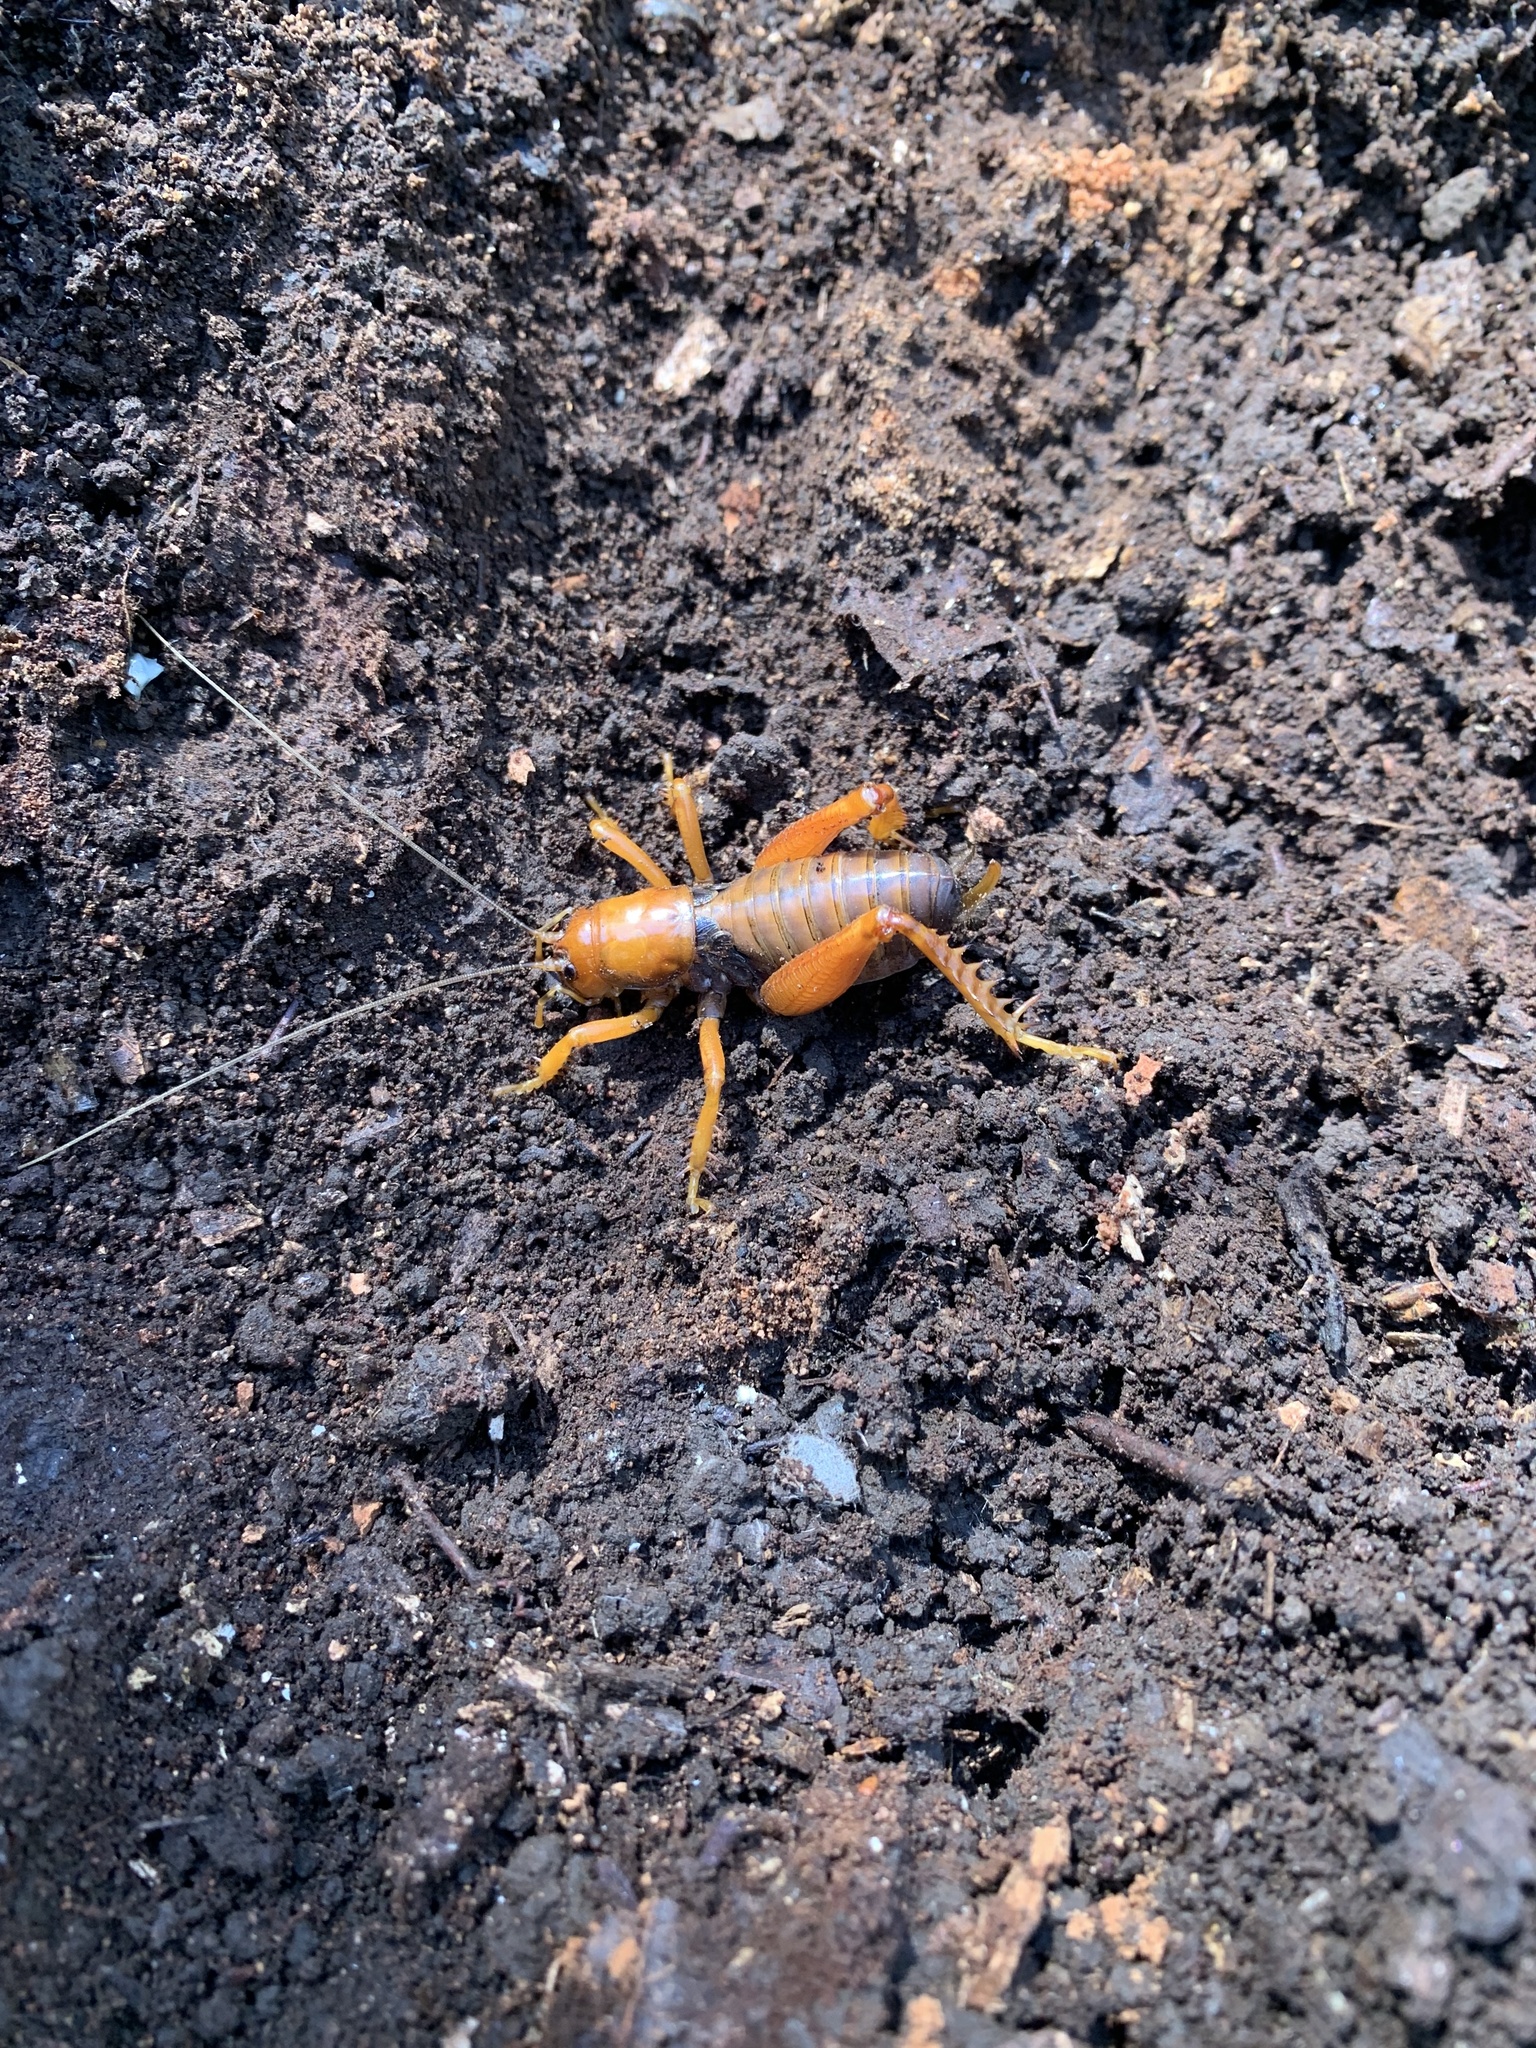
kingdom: Animalia
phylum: Arthropoda
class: Insecta
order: Orthoptera
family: Anostostomatidae
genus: Cratomelus
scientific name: Cratomelus armatus
